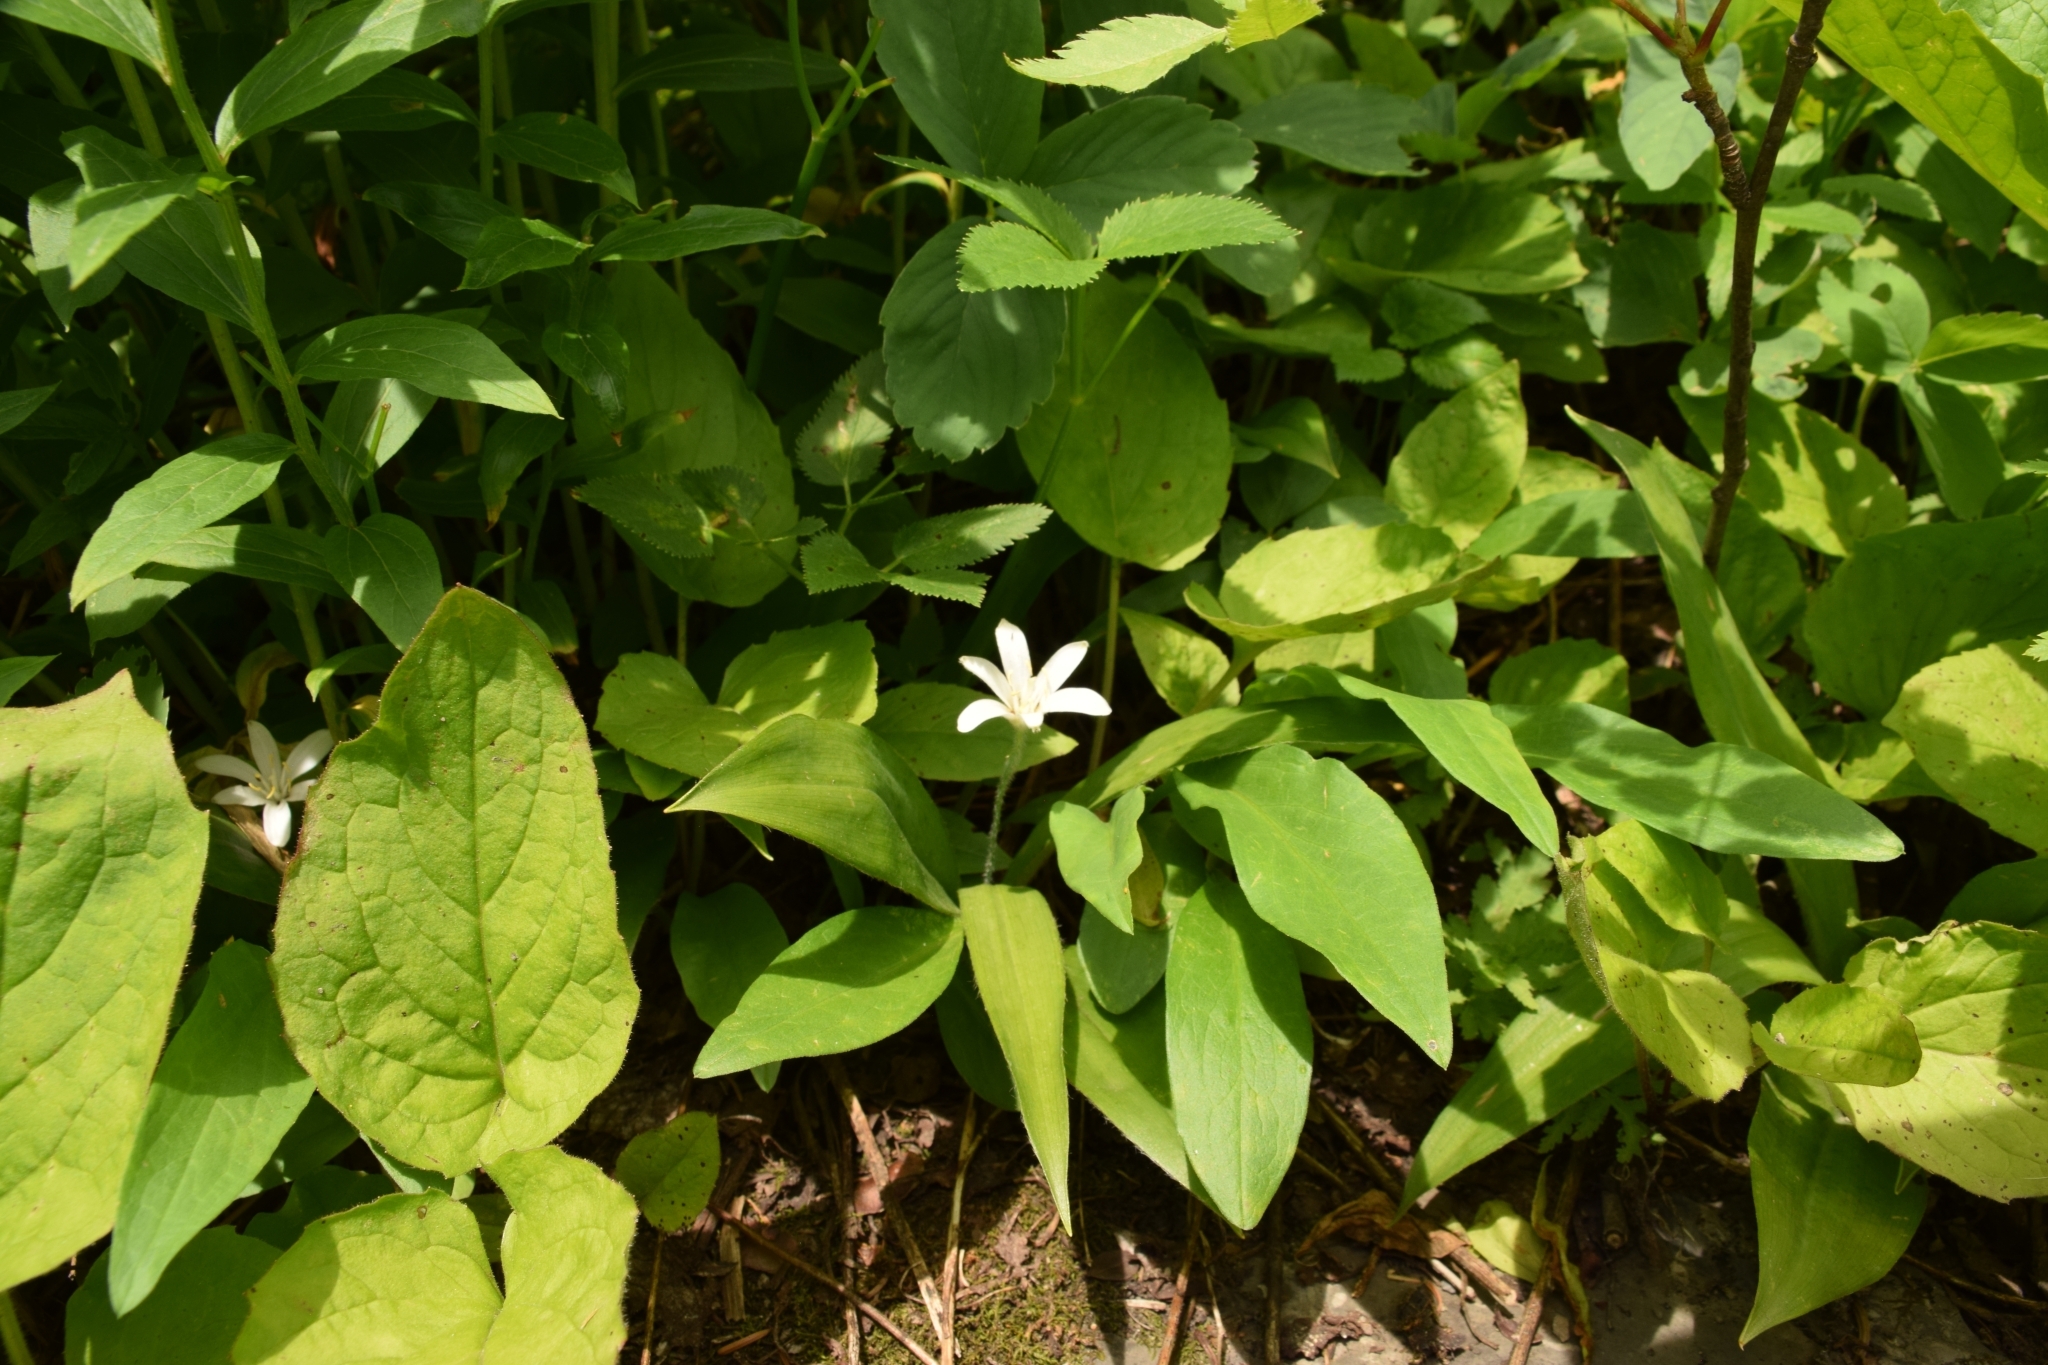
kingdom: Plantae
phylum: Tracheophyta
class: Liliopsida
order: Liliales
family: Liliaceae
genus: Clintonia
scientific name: Clintonia uniflora
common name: Queen's cup
